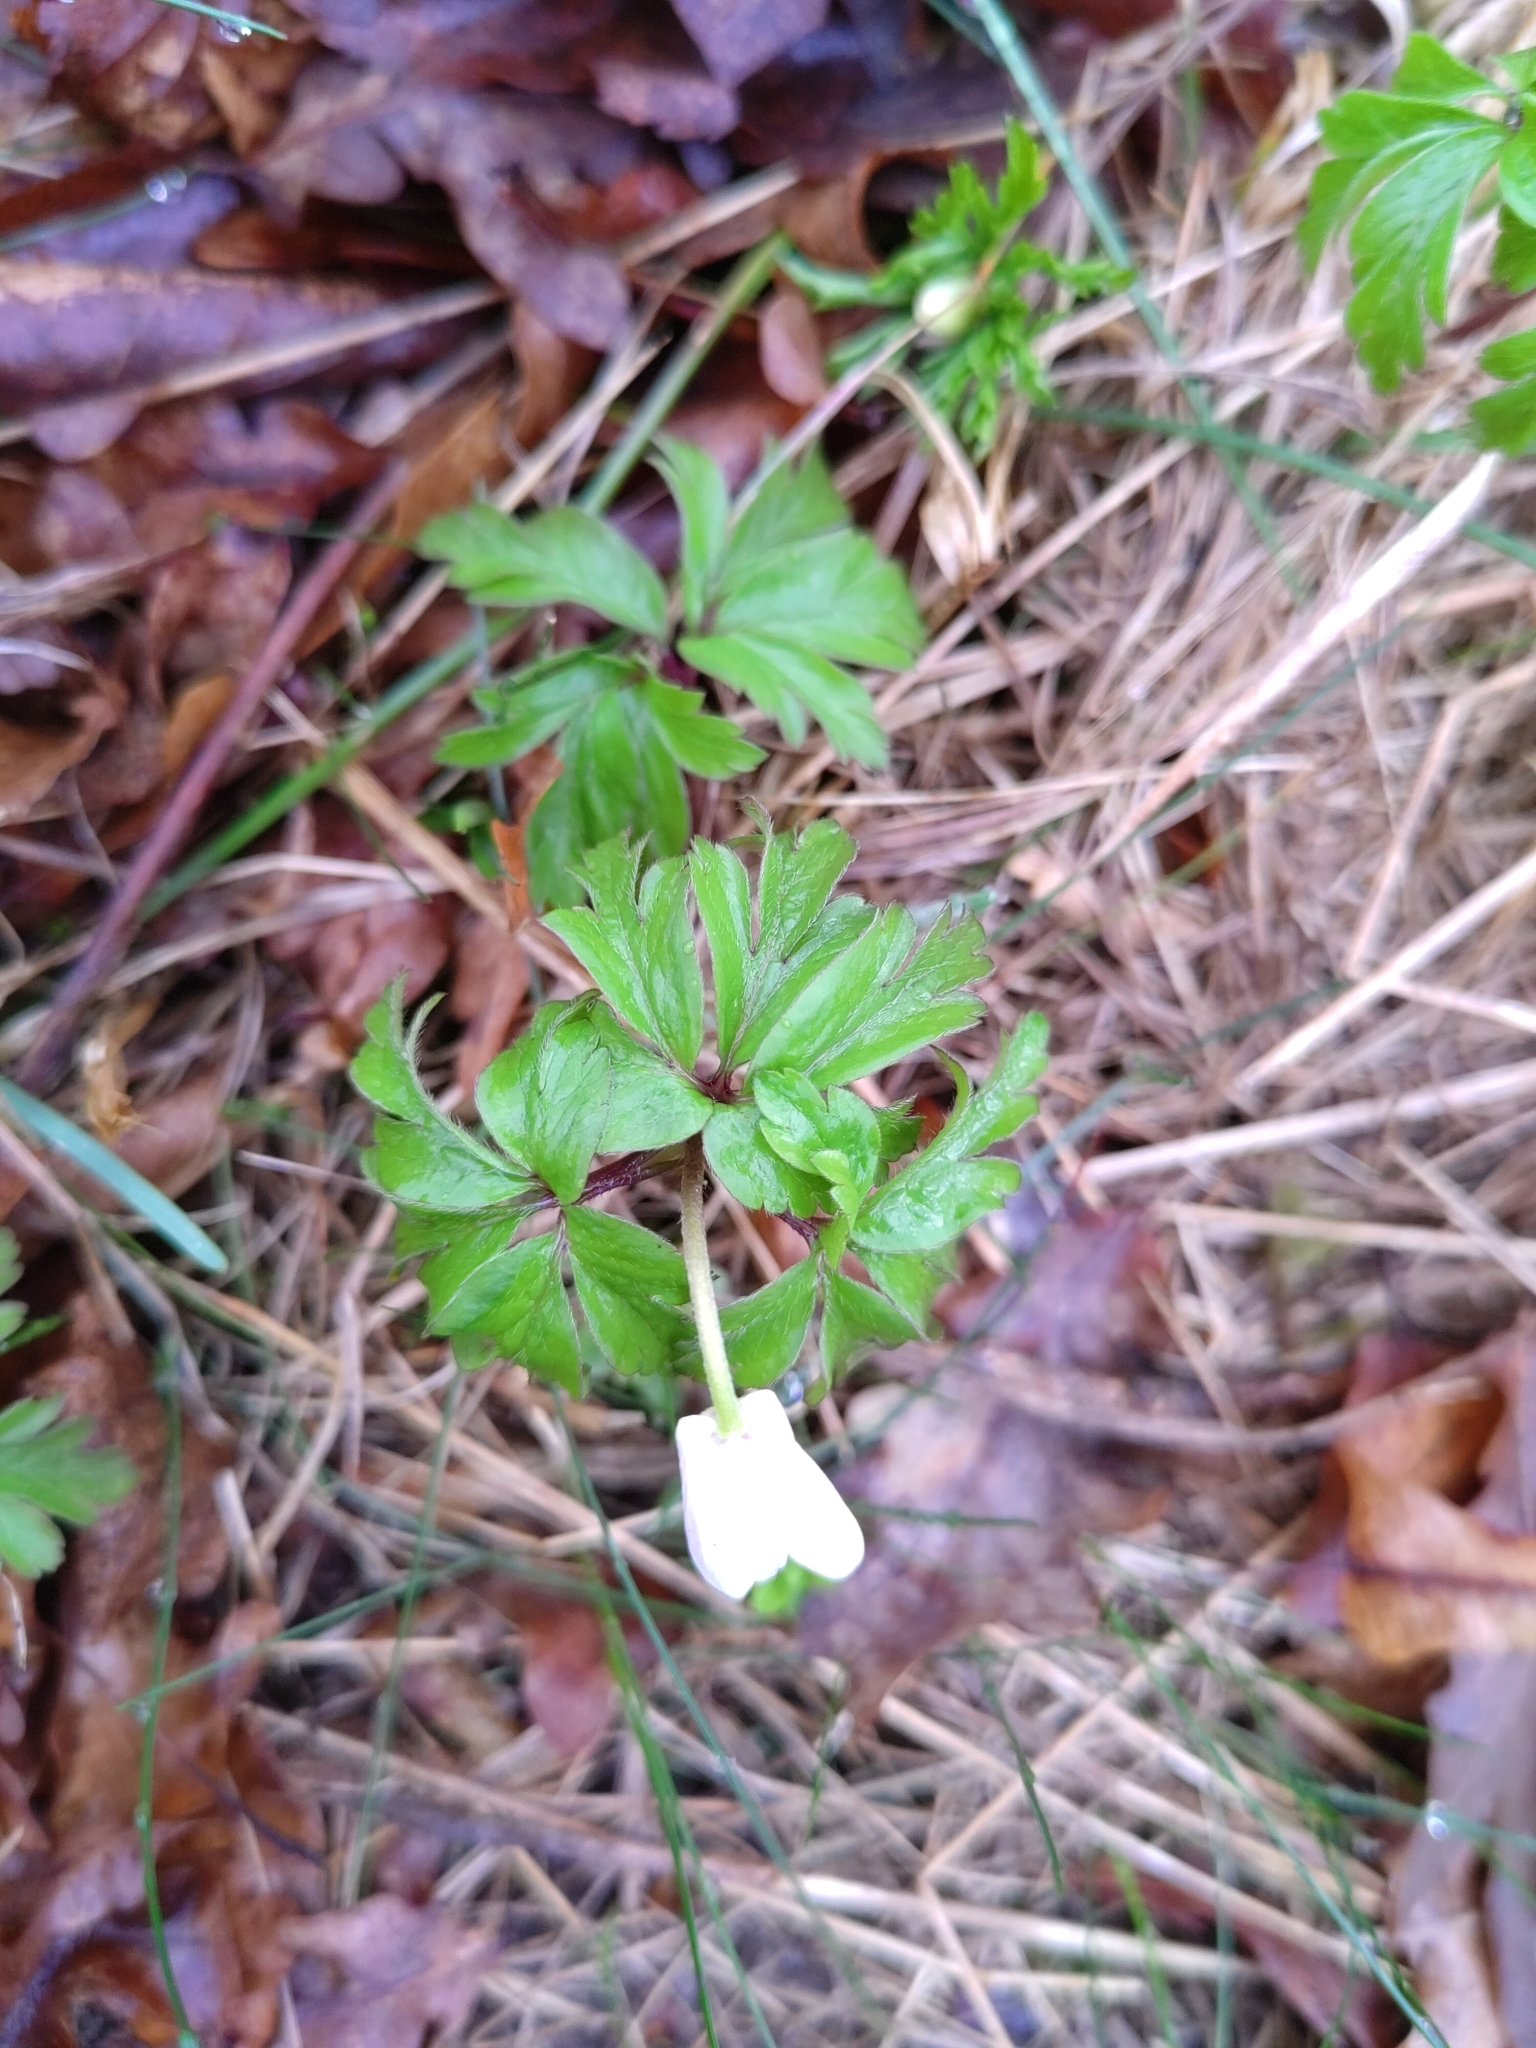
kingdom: Plantae
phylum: Tracheophyta
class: Magnoliopsida
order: Ranunculales
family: Ranunculaceae
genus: Anemone
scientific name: Anemone nemorosa
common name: Wood anemone
